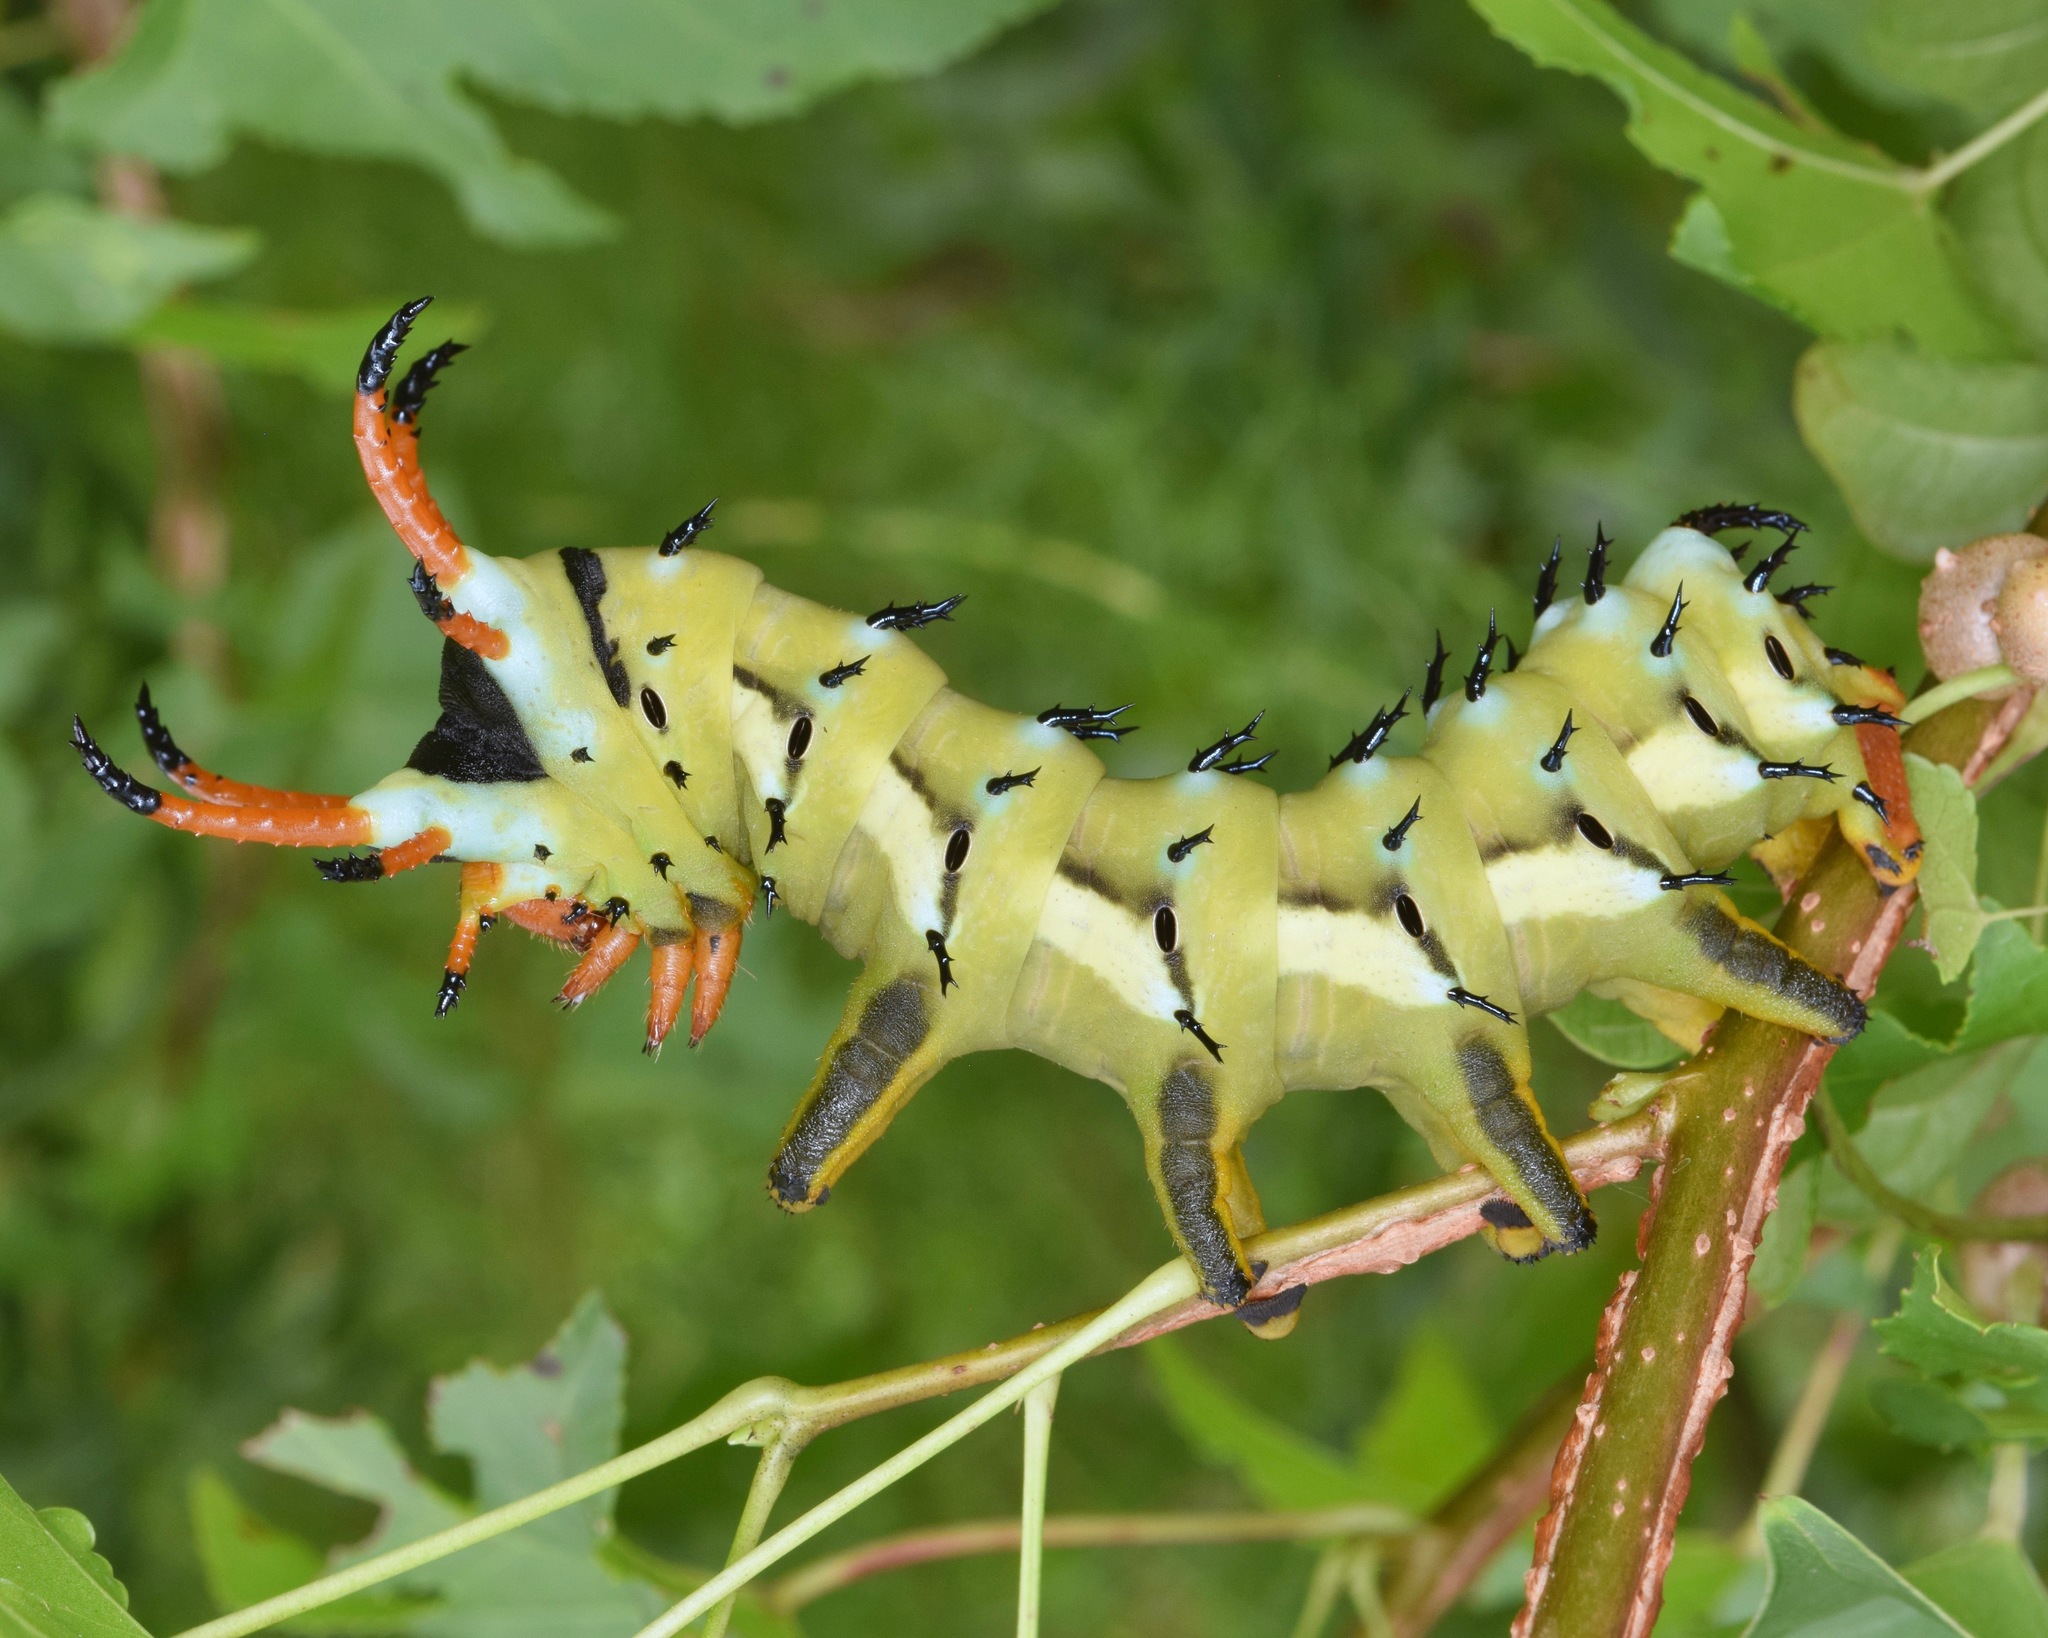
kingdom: Animalia
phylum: Arthropoda
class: Insecta
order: Lepidoptera
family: Saturniidae
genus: Citheronia
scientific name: Citheronia regalis
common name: Hickory horned devil
